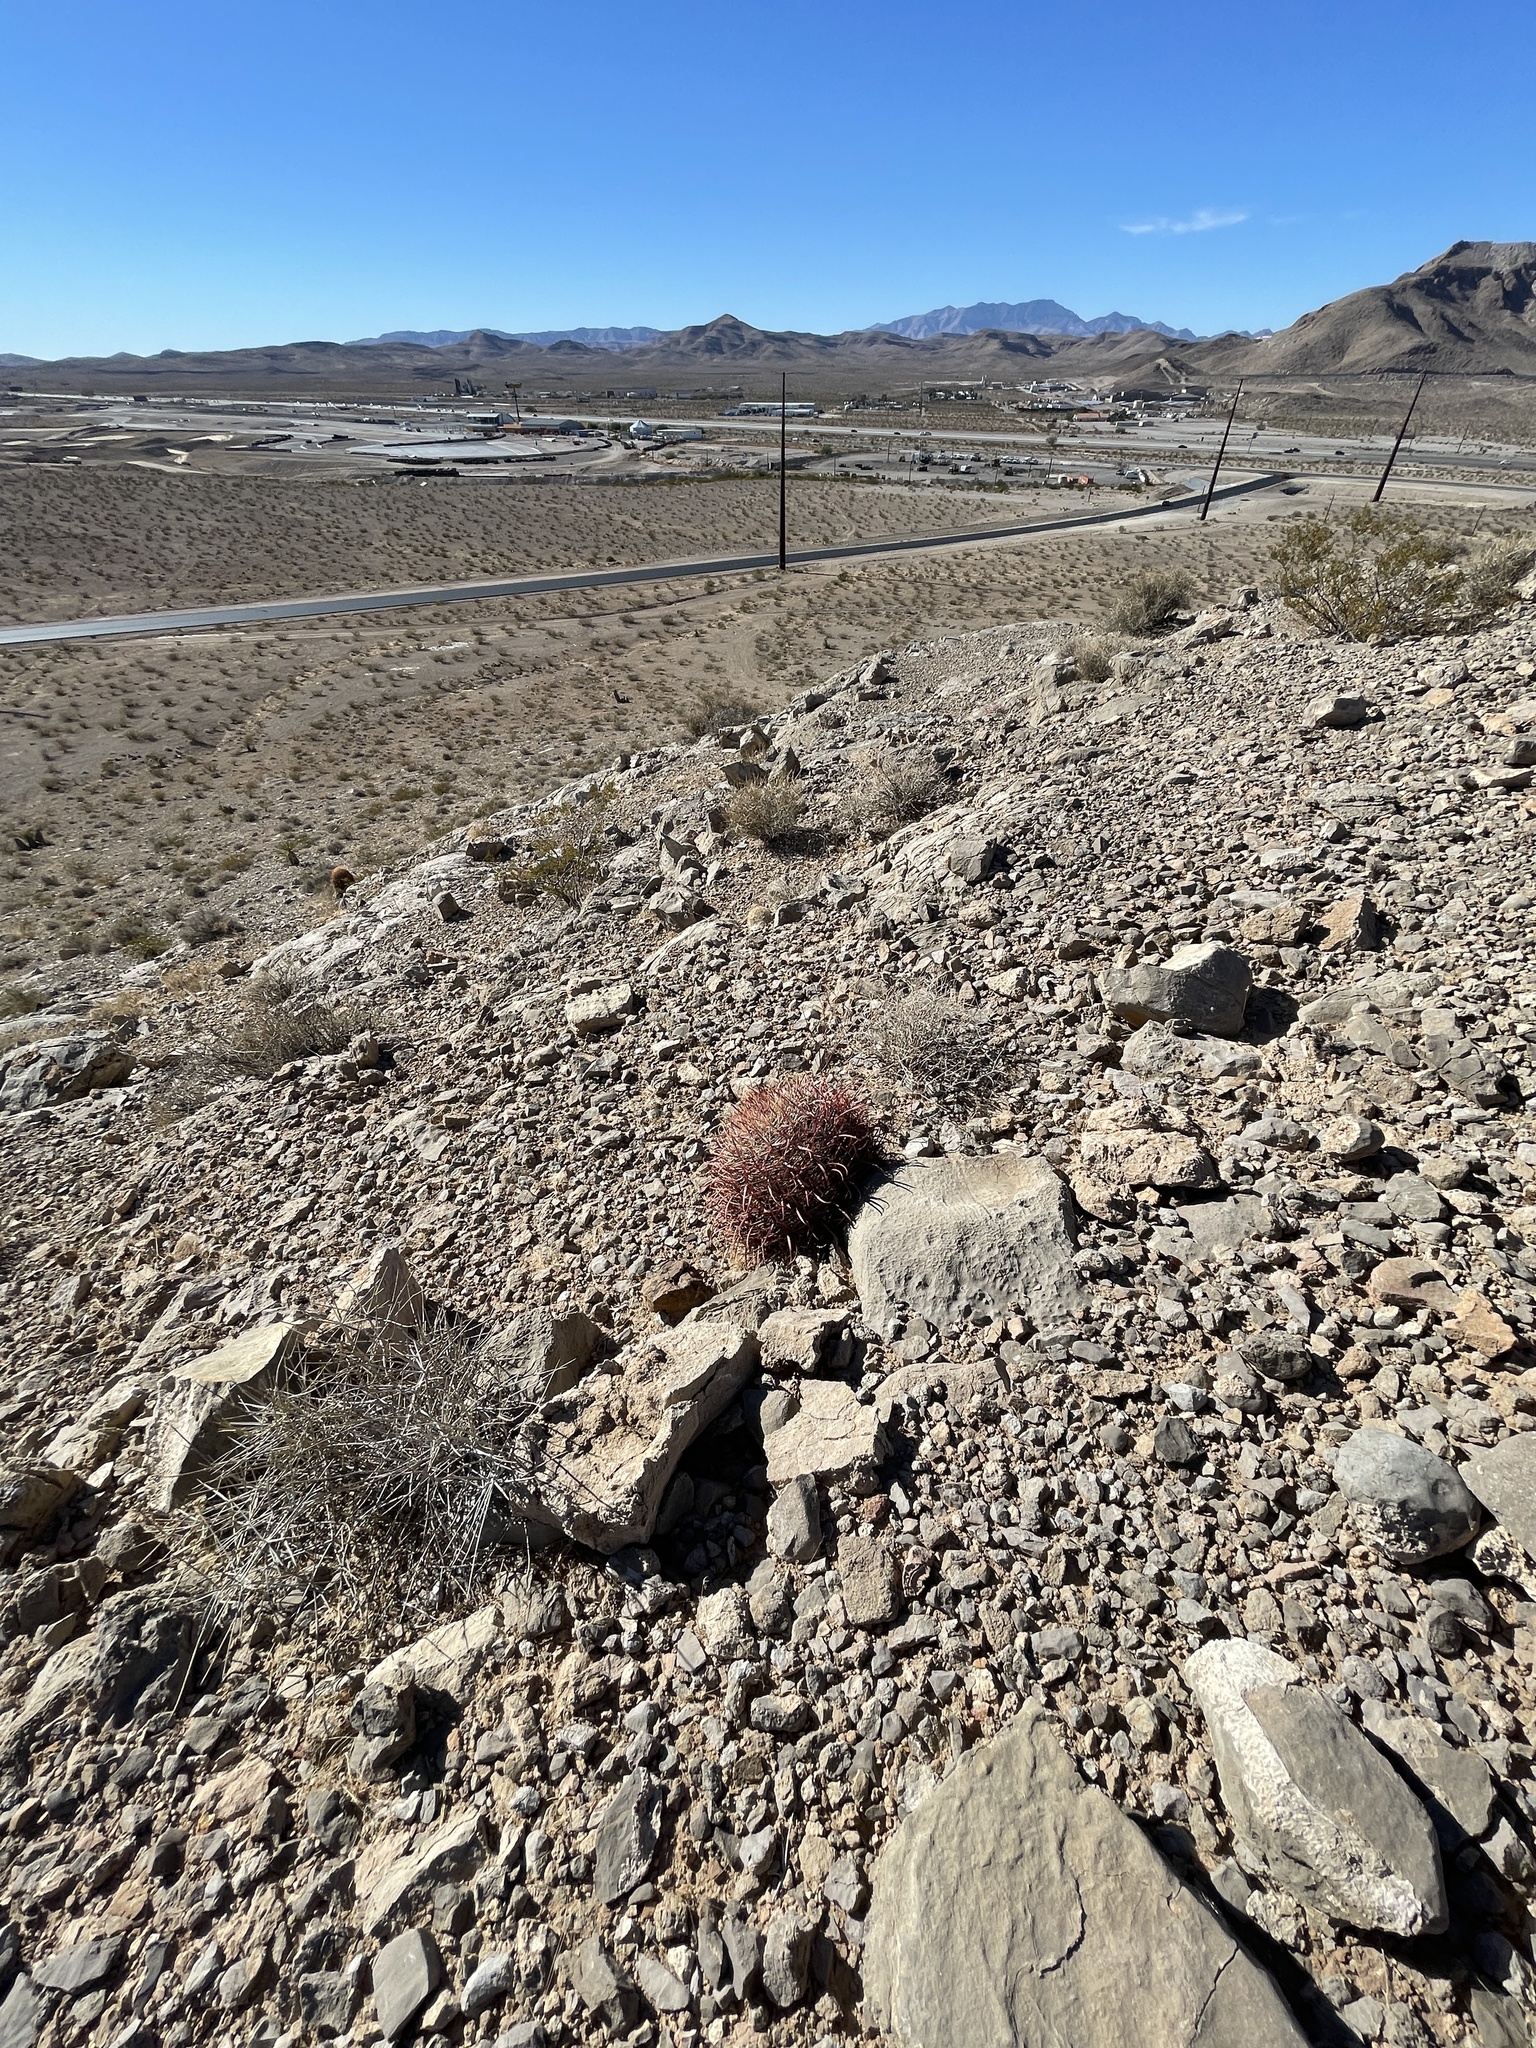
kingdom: Plantae
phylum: Tracheophyta
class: Magnoliopsida
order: Caryophyllales
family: Cactaceae
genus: Ferocactus
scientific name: Ferocactus cylindraceus
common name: California barrel cactus
